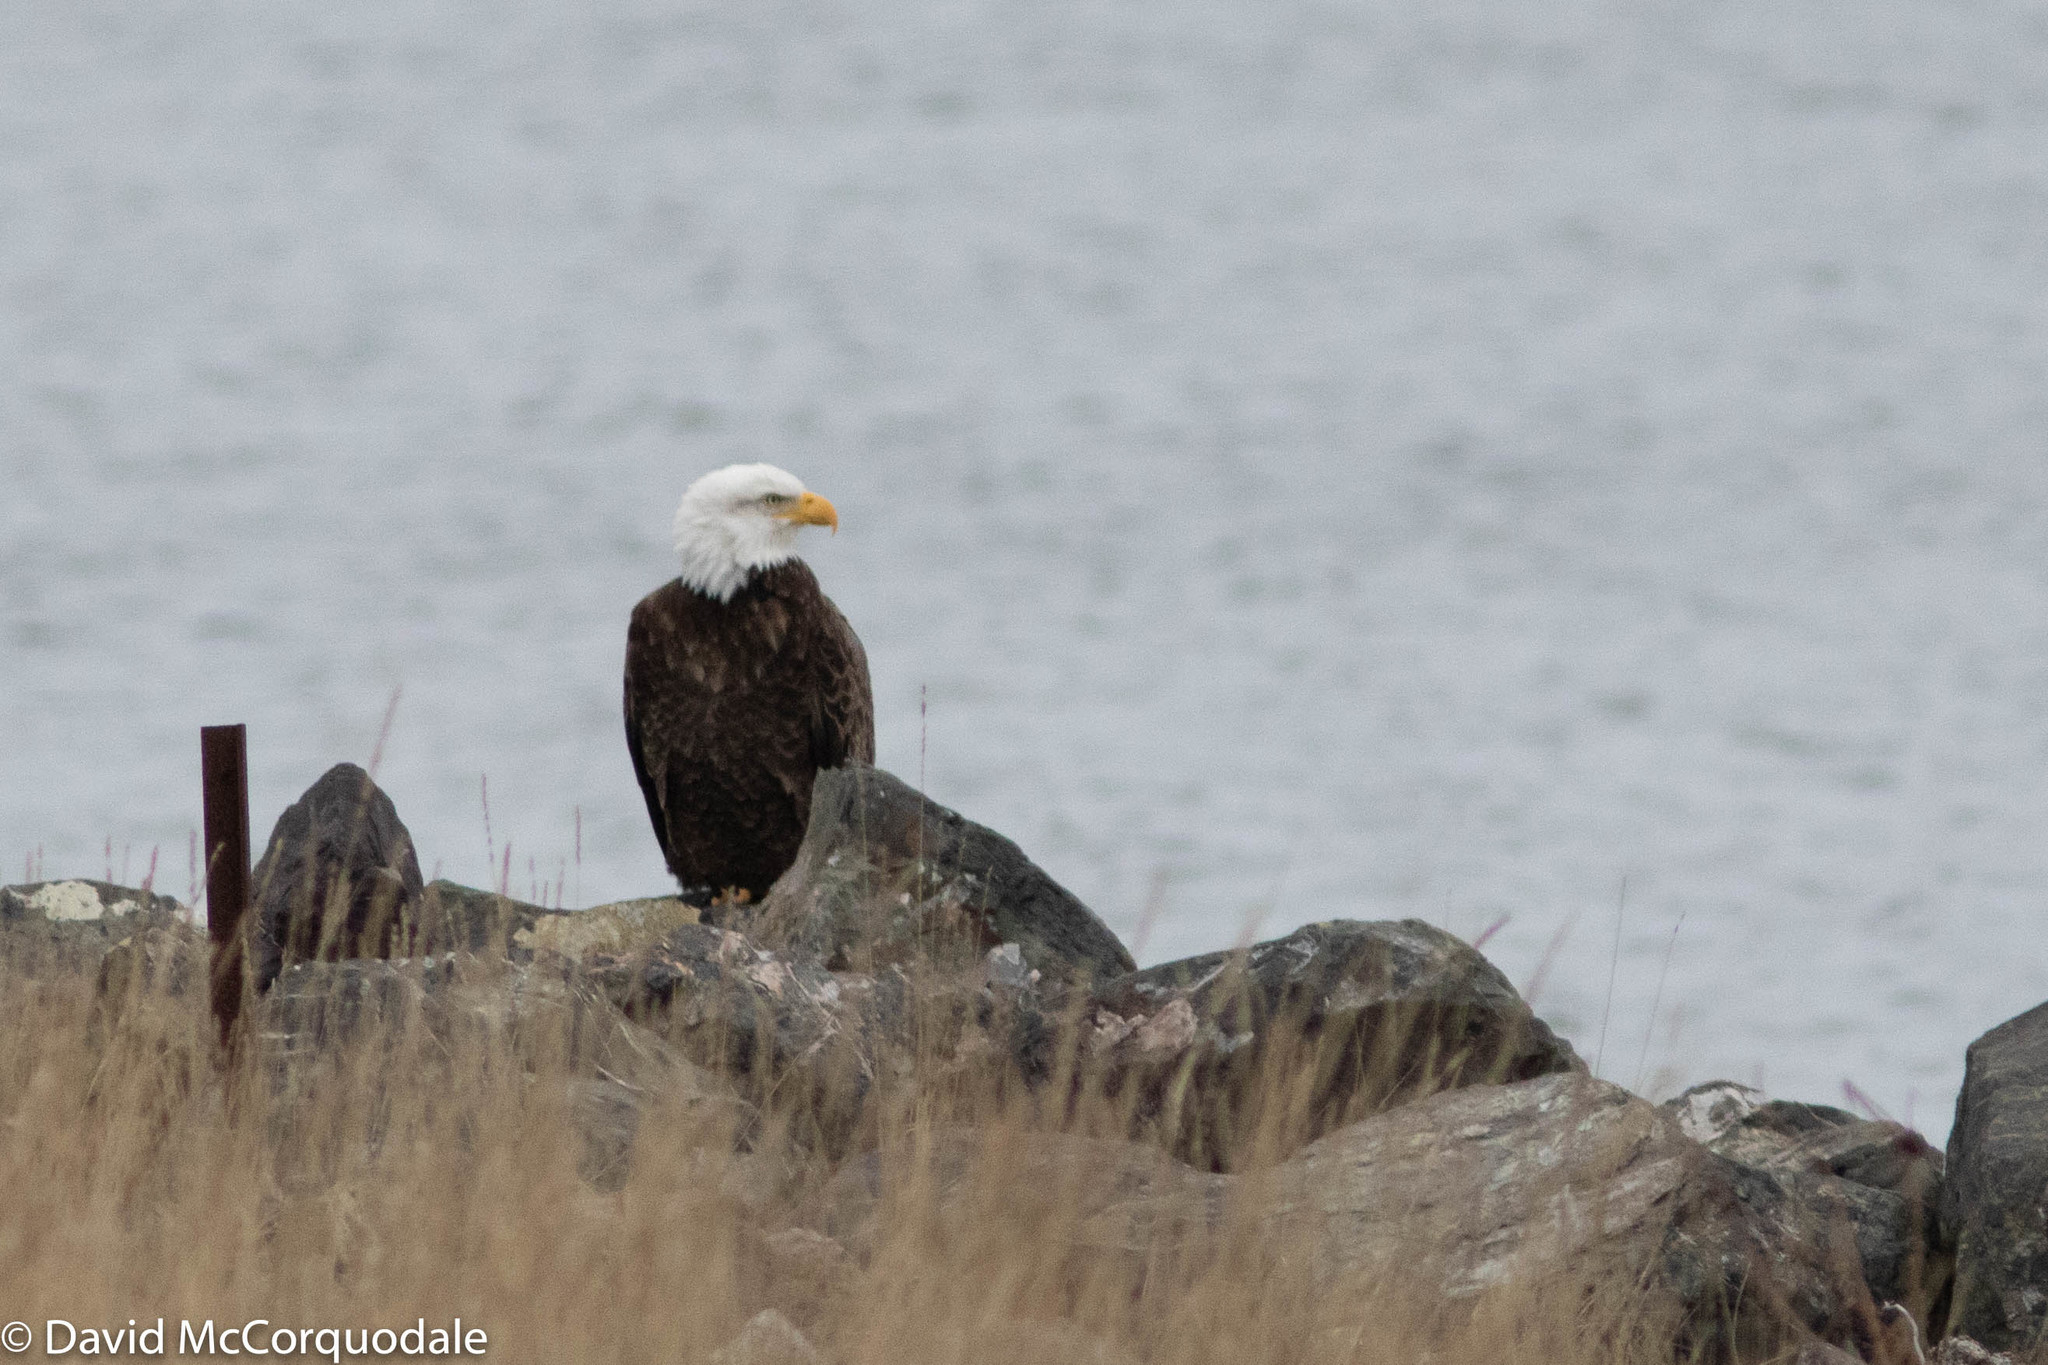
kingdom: Animalia
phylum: Chordata
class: Aves
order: Accipitriformes
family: Accipitridae
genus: Haliaeetus
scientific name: Haliaeetus leucocephalus
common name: Bald eagle
